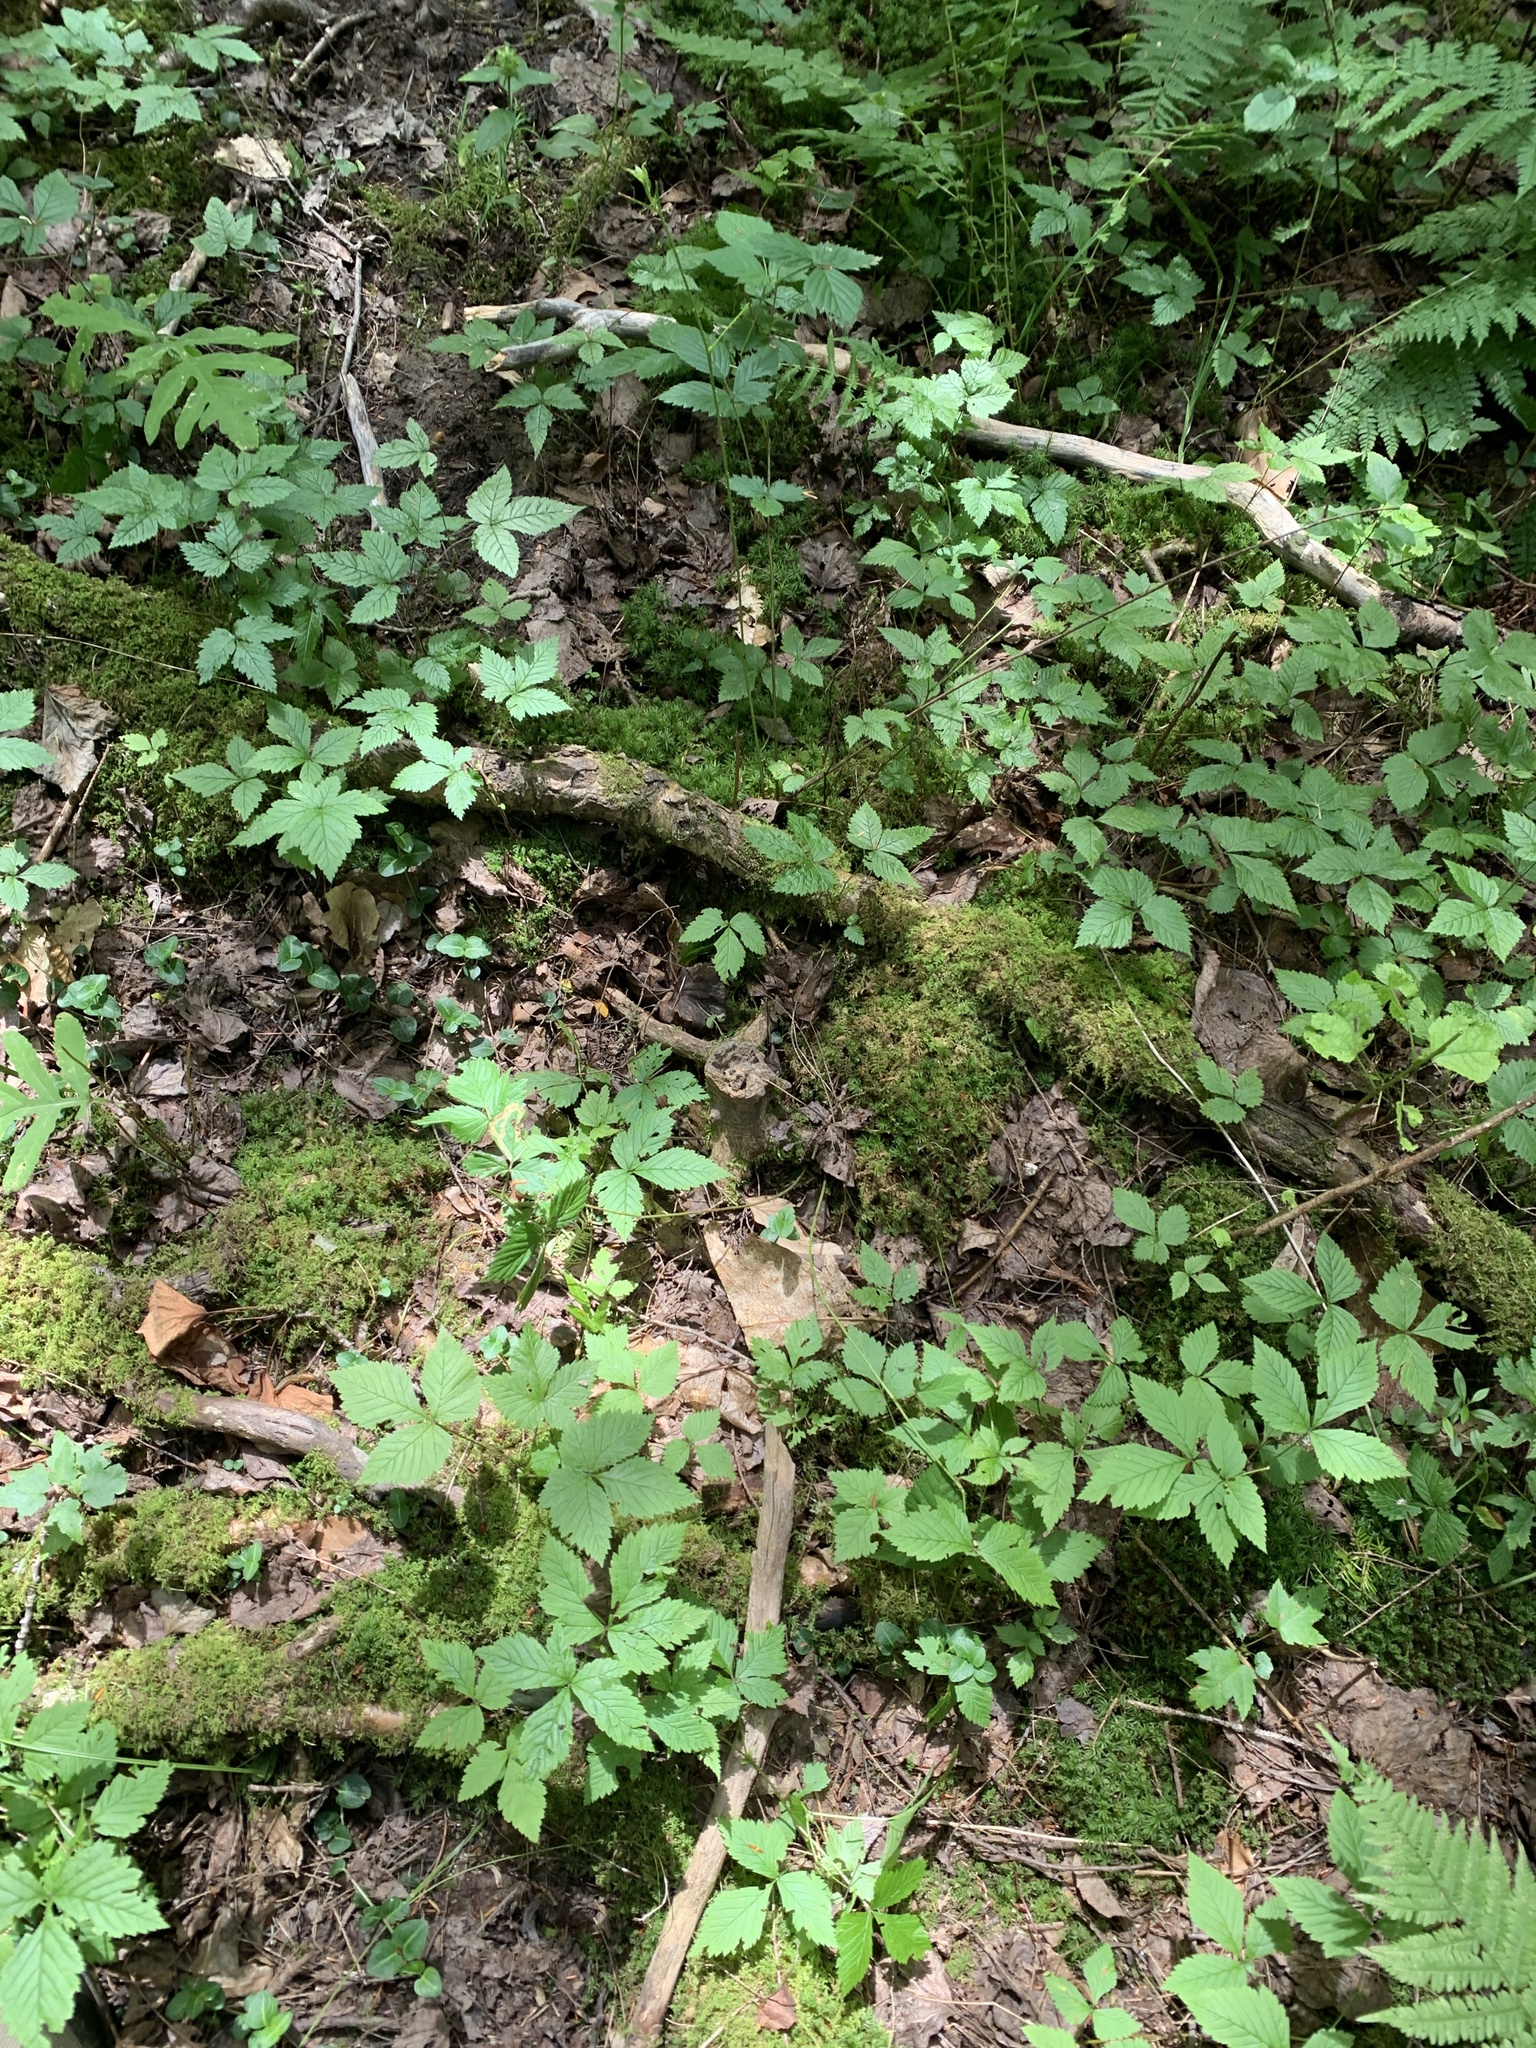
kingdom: Plantae
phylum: Tracheophyta
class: Magnoliopsida
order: Rosales
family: Rosaceae
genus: Rubus
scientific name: Rubus pubescens
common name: Dwarf raspberry
